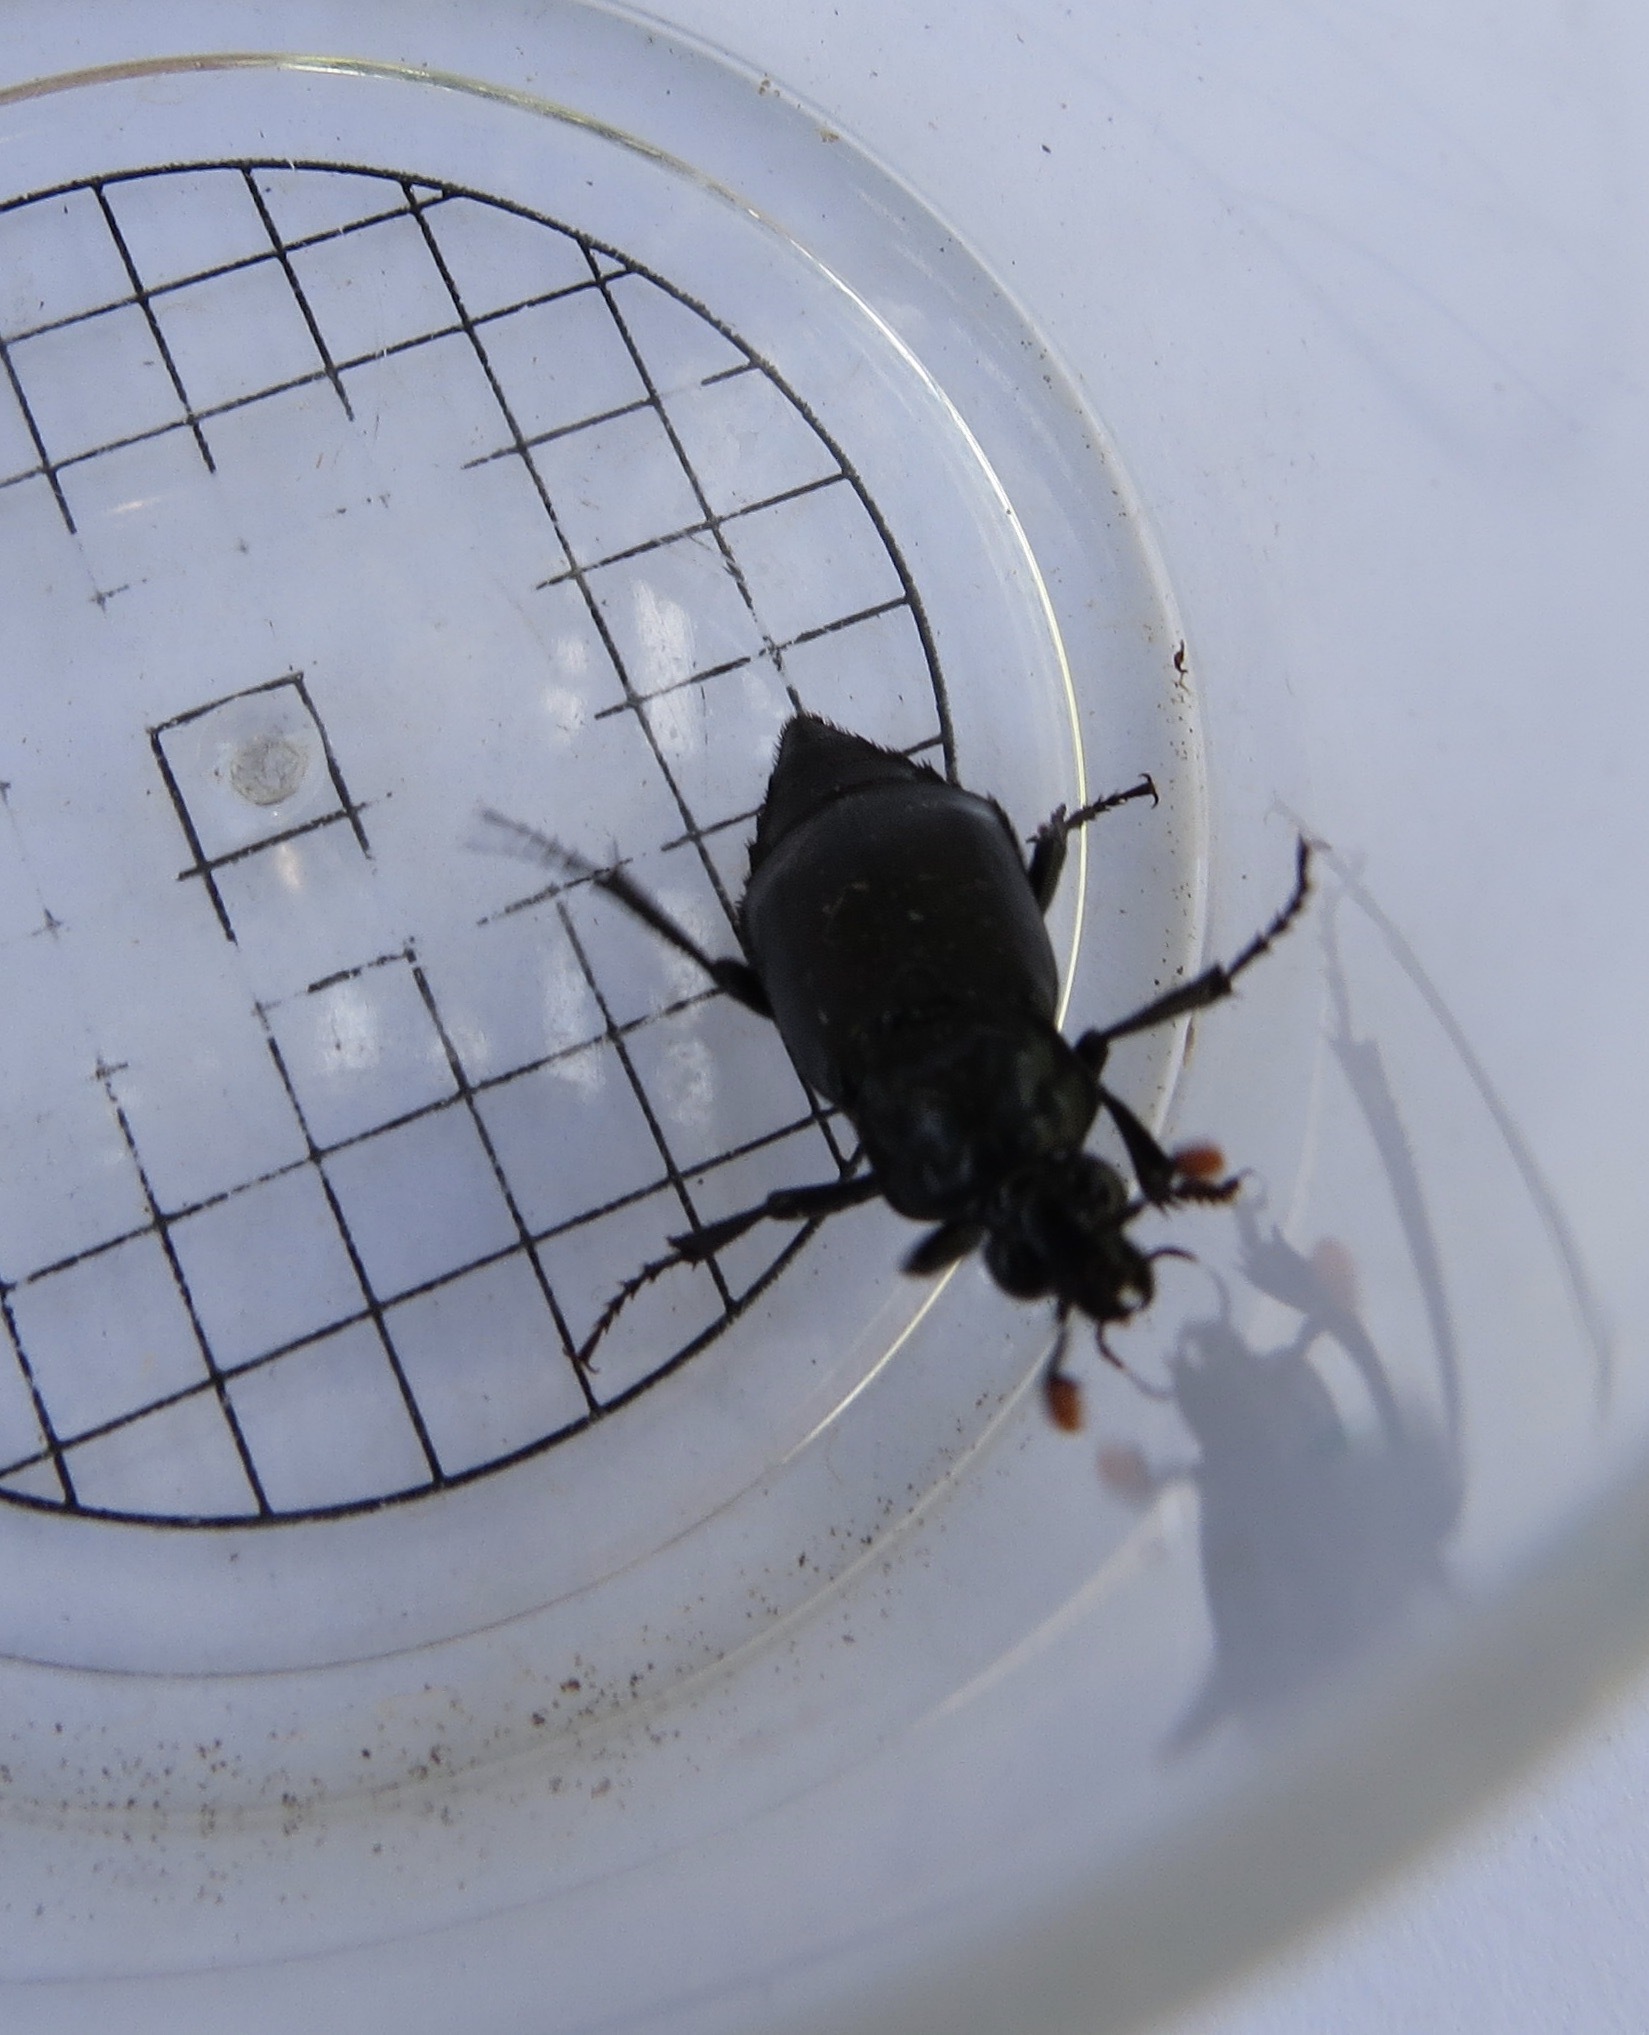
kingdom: Animalia
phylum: Arthropoda
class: Insecta
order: Coleoptera
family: Staphylinidae
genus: Nicrophorus
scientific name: Nicrophorus nigrita
